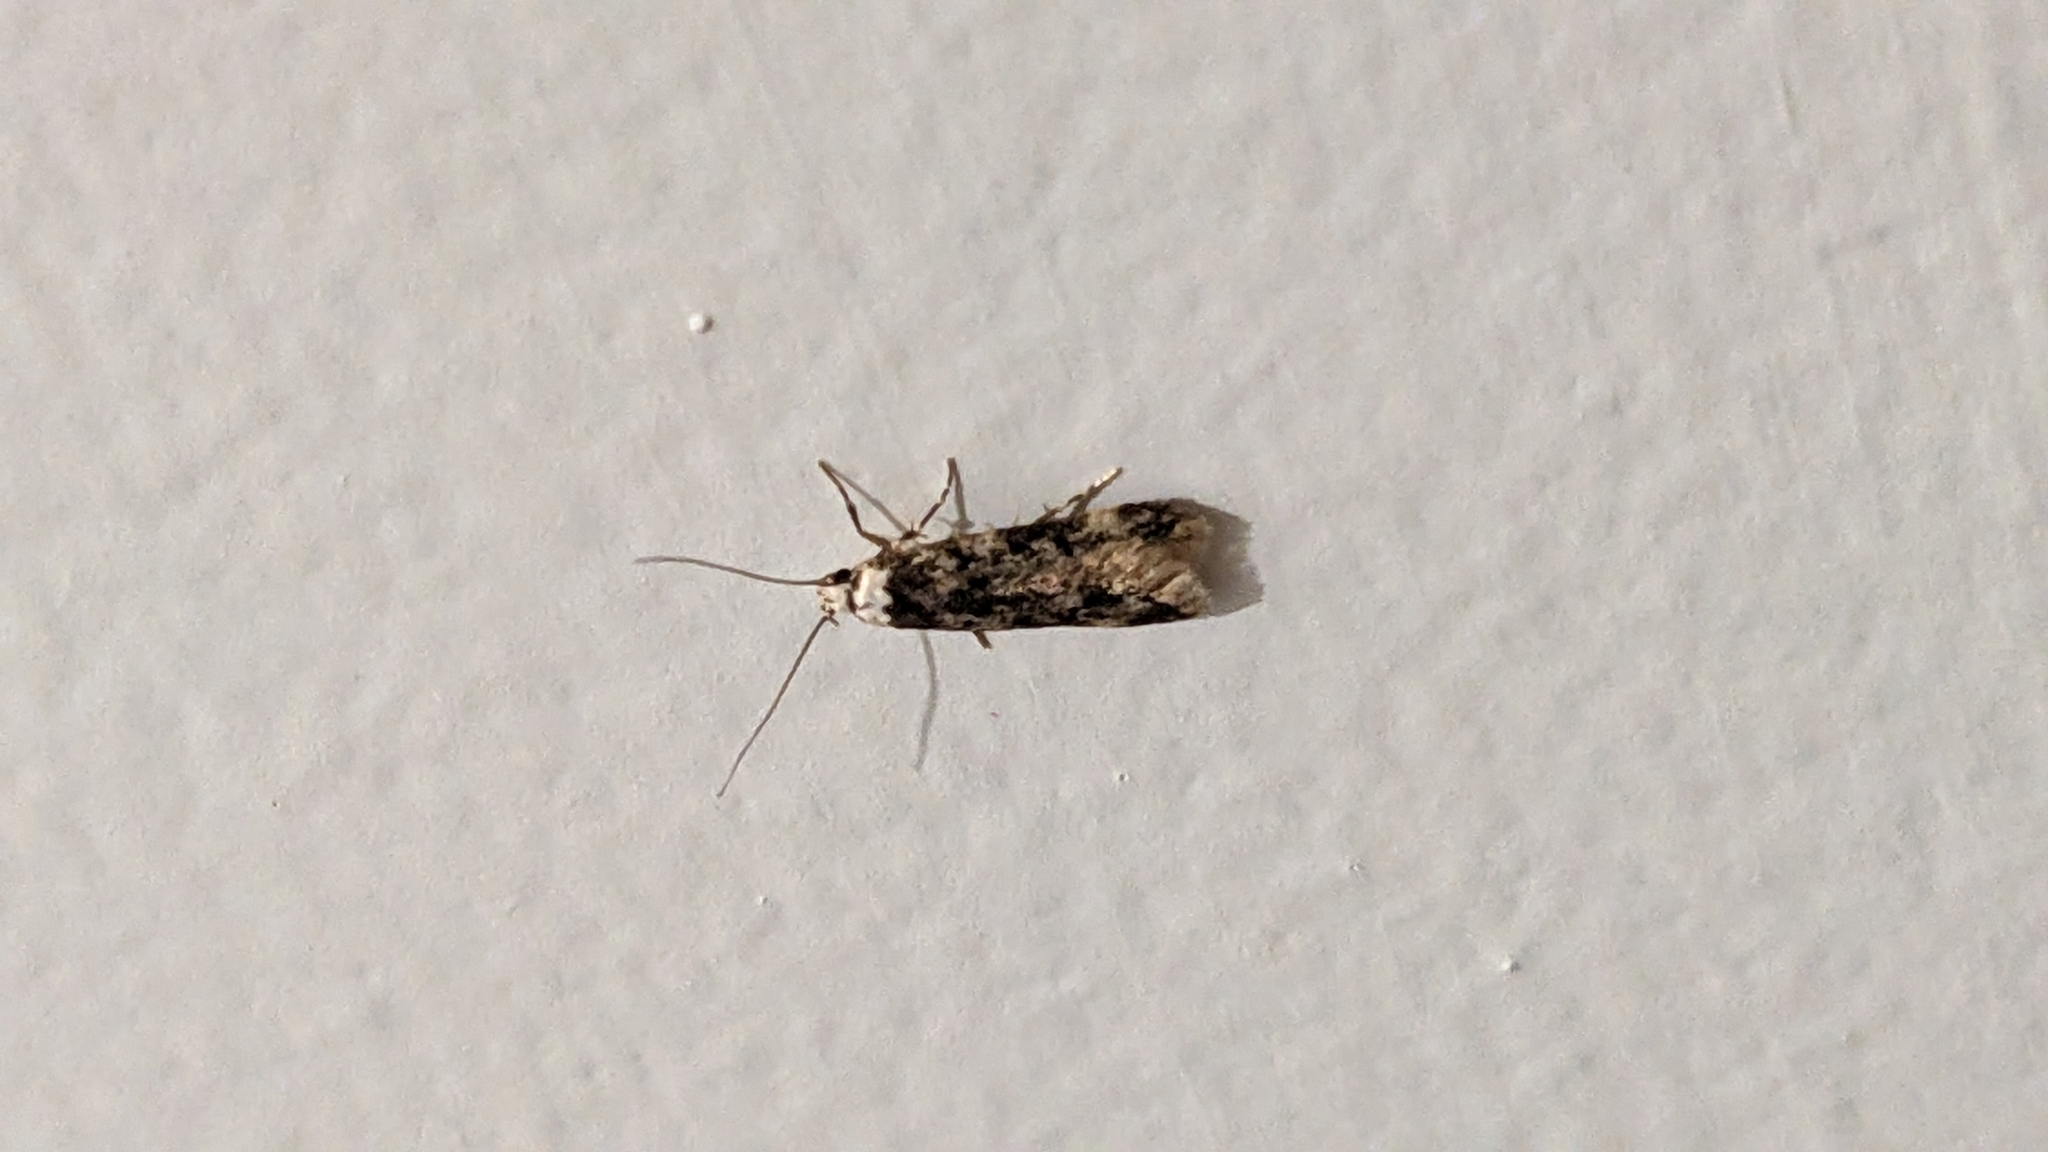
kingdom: Animalia
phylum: Arthropoda
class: Insecta
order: Lepidoptera
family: Oecophoridae
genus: Endrosis
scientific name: Endrosis sarcitrella
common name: White-shouldered house moth
